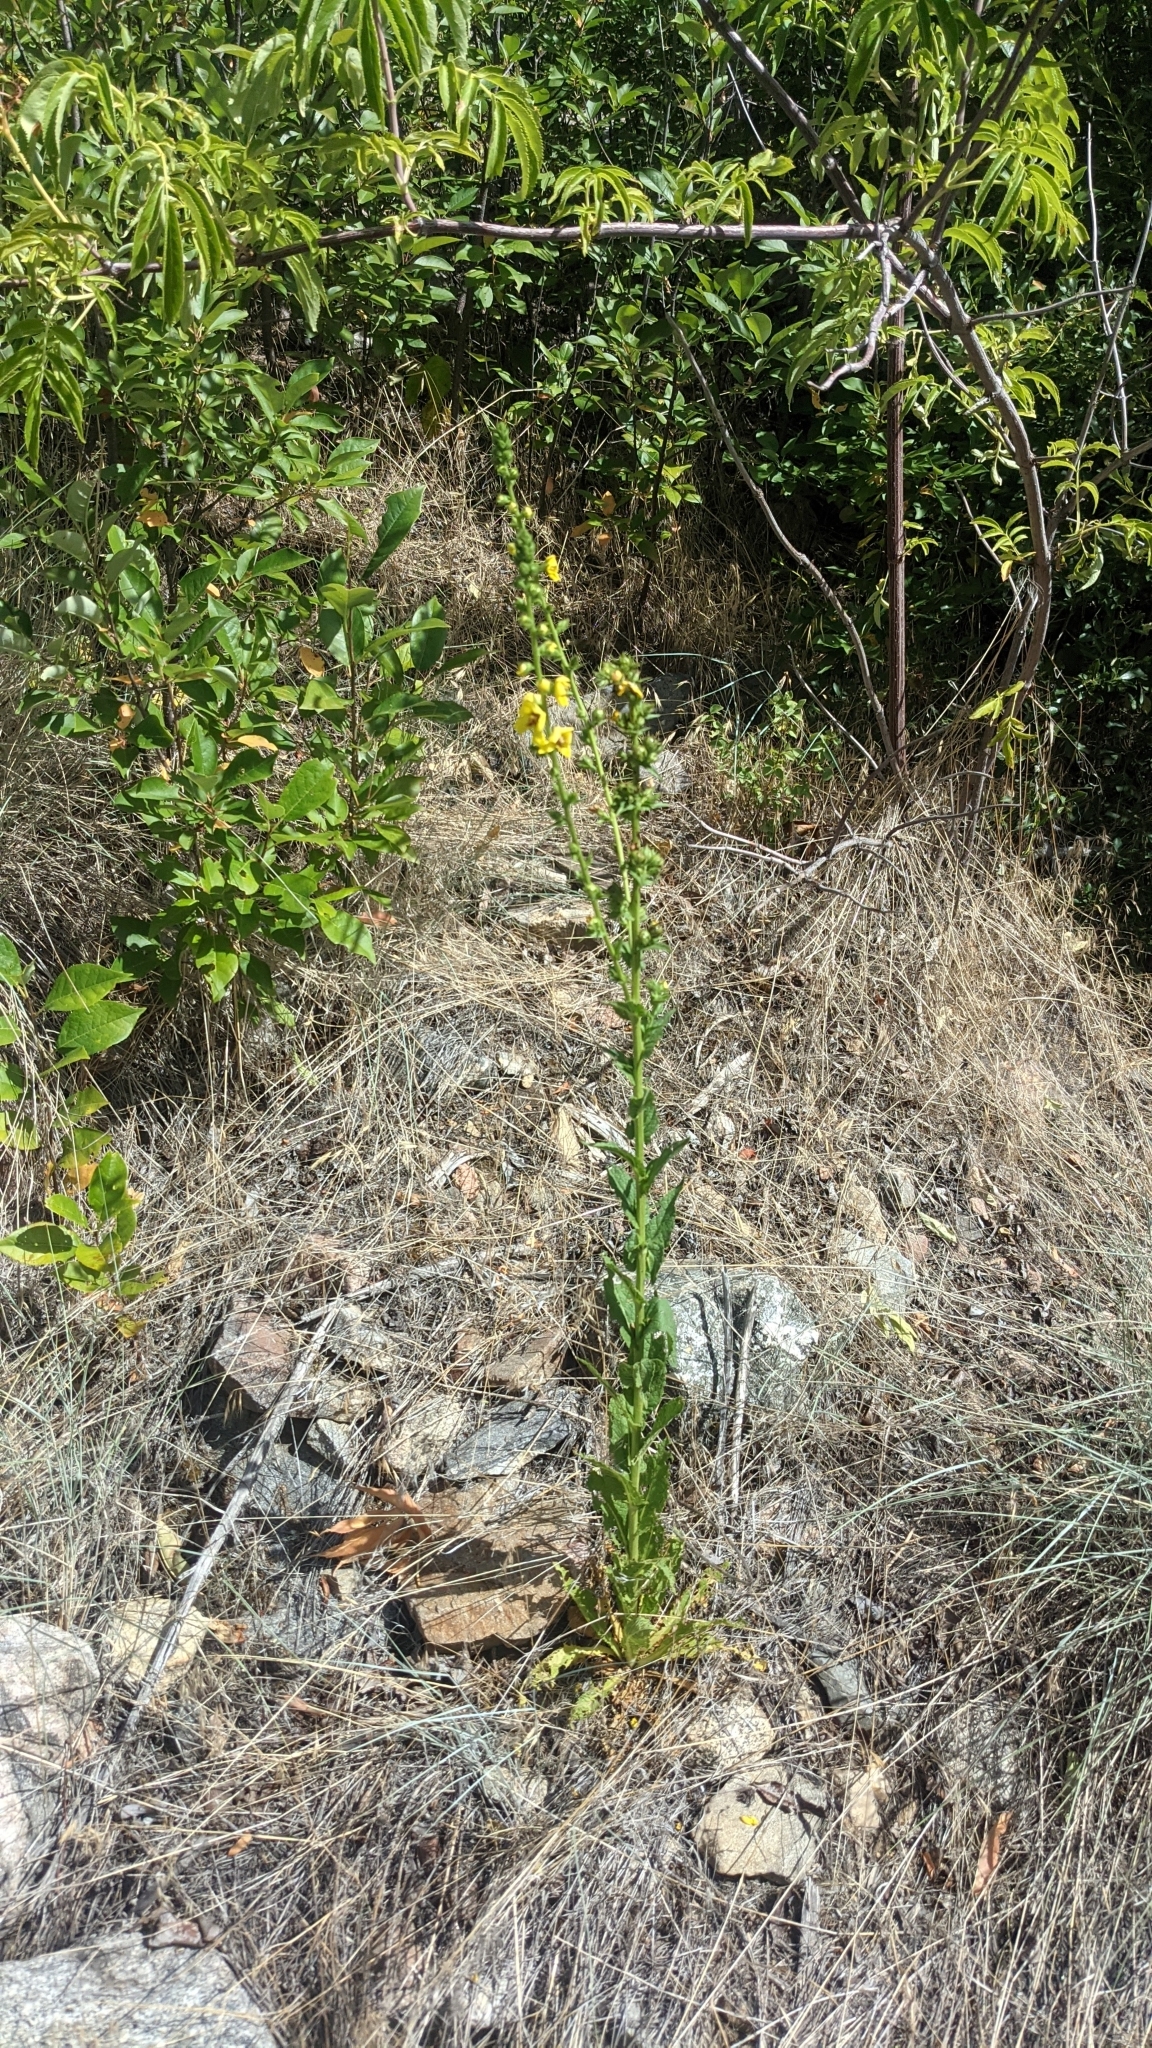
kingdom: Plantae
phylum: Tracheophyta
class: Magnoliopsida
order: Lamiales
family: Scrophulariaceae
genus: Verbascum
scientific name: Verbascum virgatum
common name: Twiggy mullein
